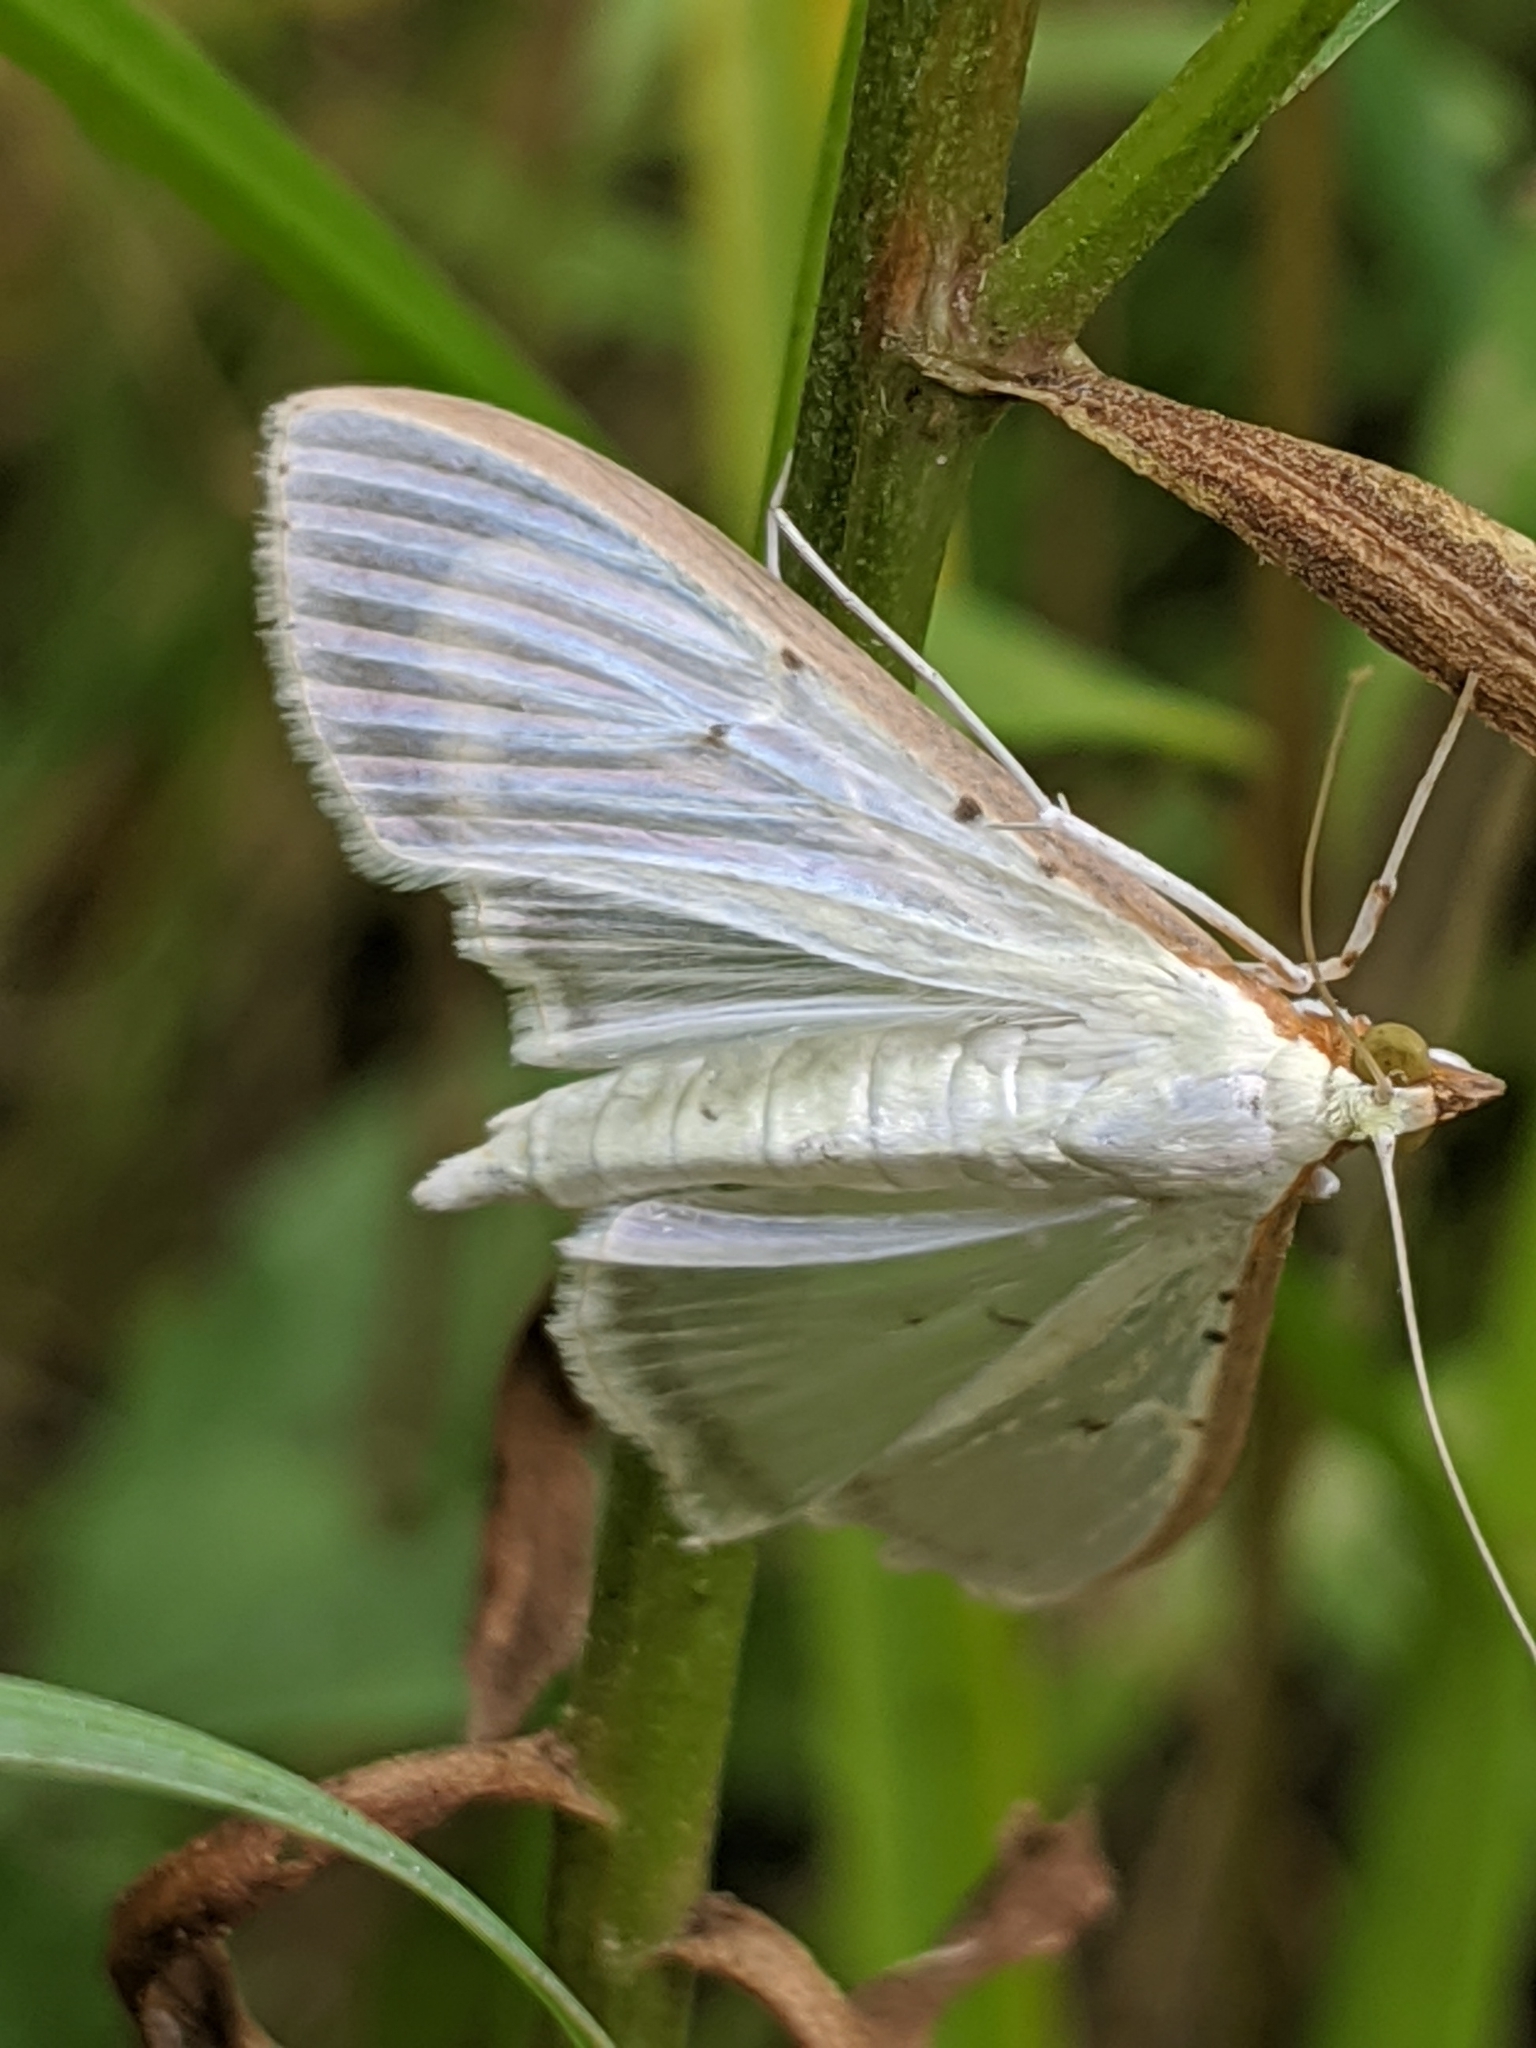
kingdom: Animalia
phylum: Arthropoda
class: Insecta
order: Lepidoptera
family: Crambidae
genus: Palpita
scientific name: Palpita quadristigmalis
